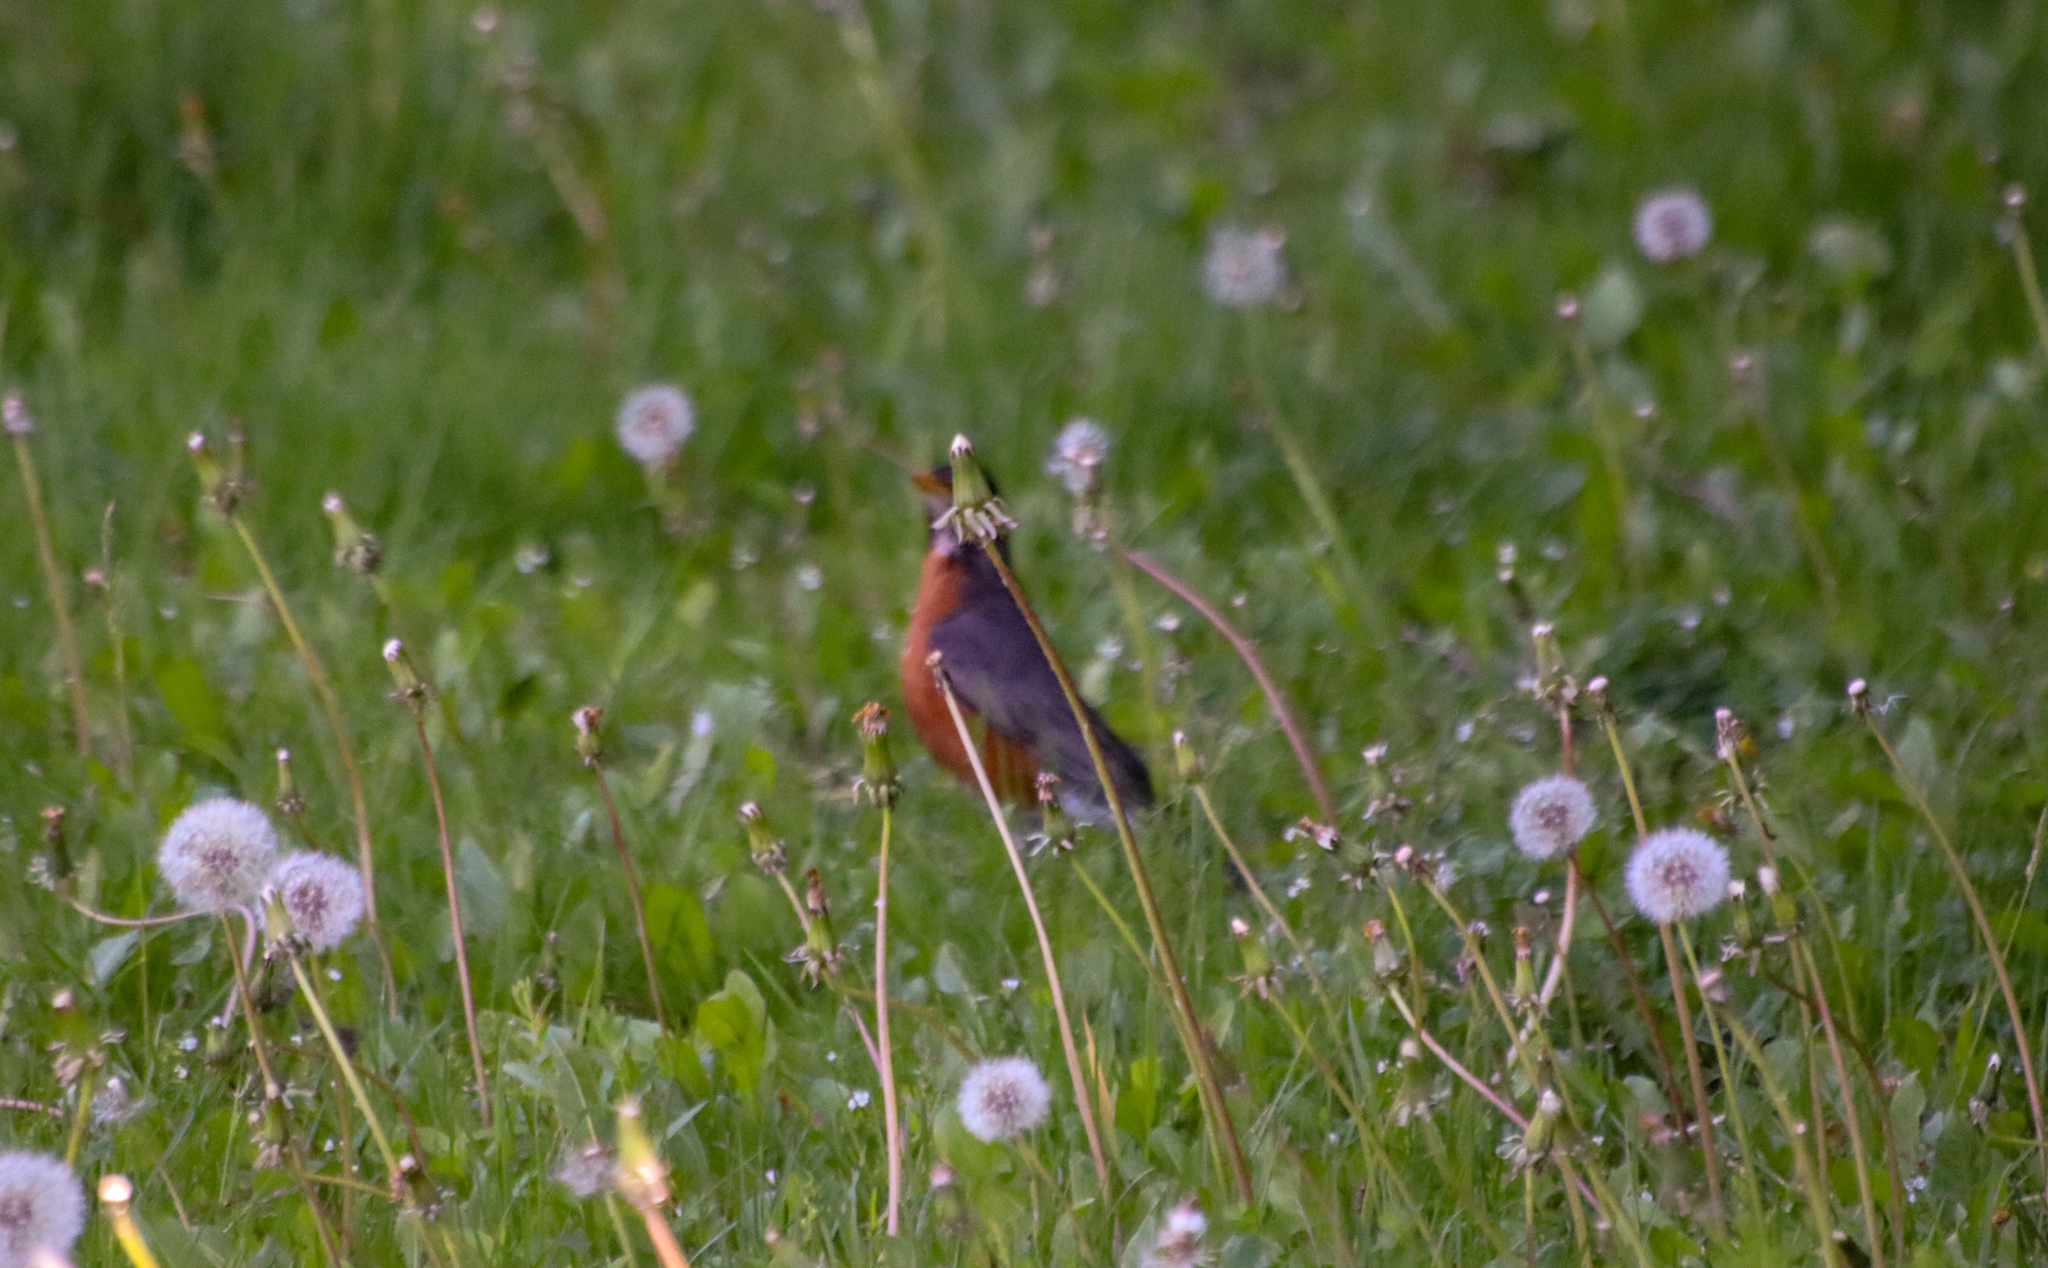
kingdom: Animalia
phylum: Chordata
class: Aves
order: Passeriformes
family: Turdidae
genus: Turdus
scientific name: Turdus migratorius
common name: American robin
